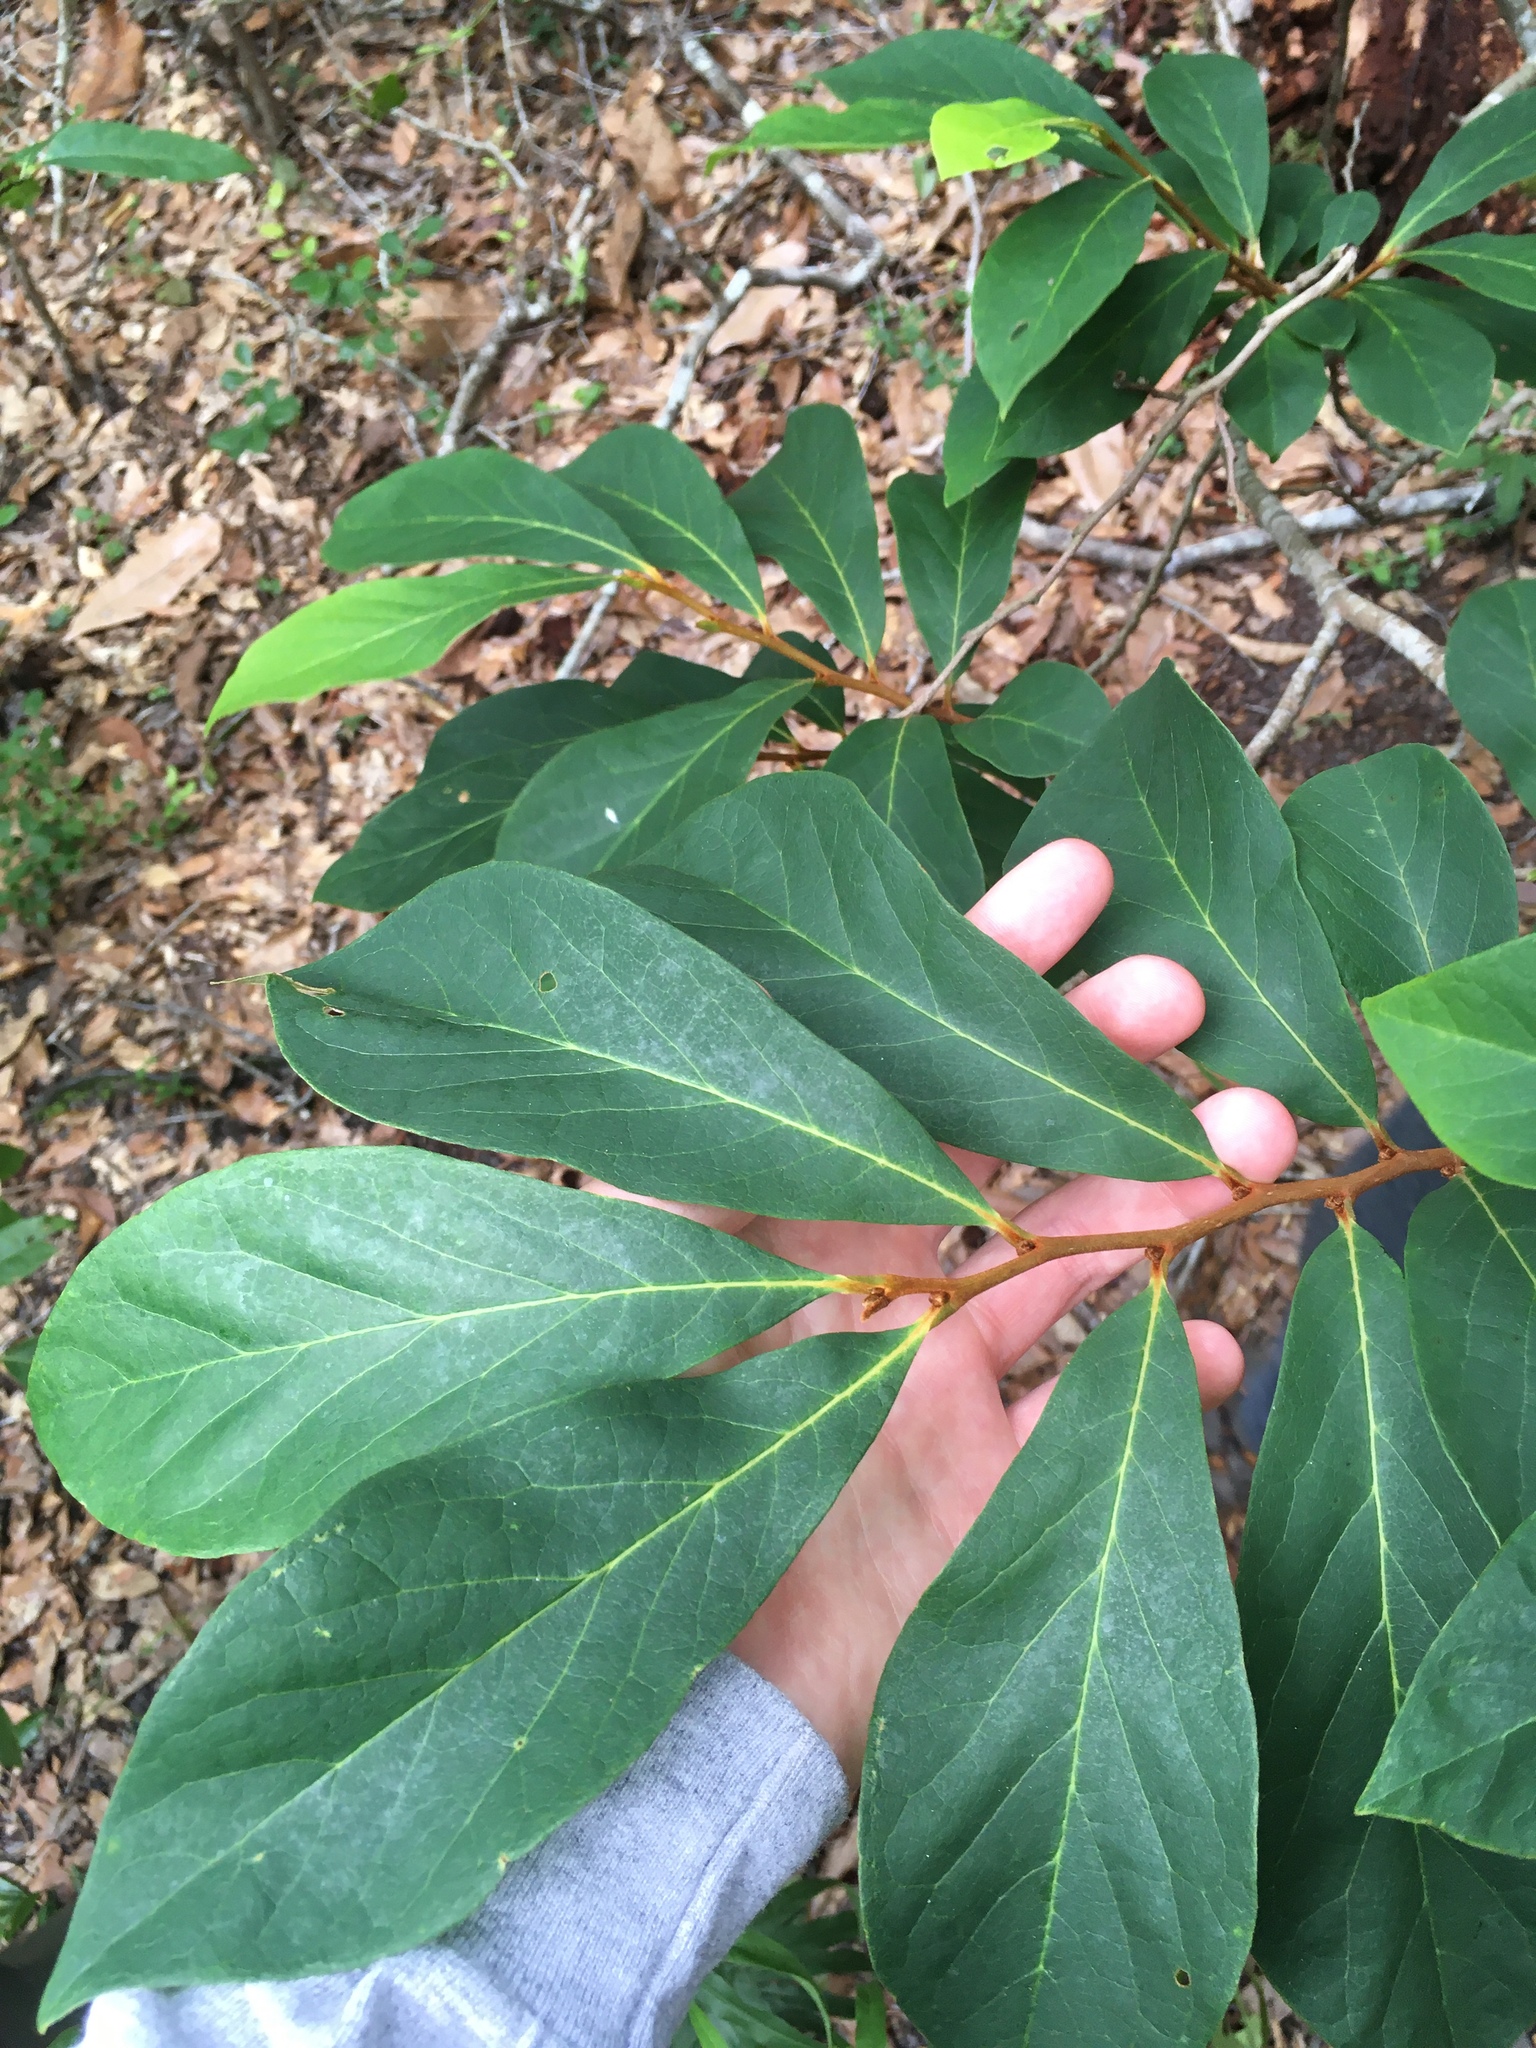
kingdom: Plantae
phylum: Tracheophyta
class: Magnoliopsida
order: Magnoliales
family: Annonaceae
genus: Asimina
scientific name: Asimina parviflora
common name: Dwarf pawpaw
